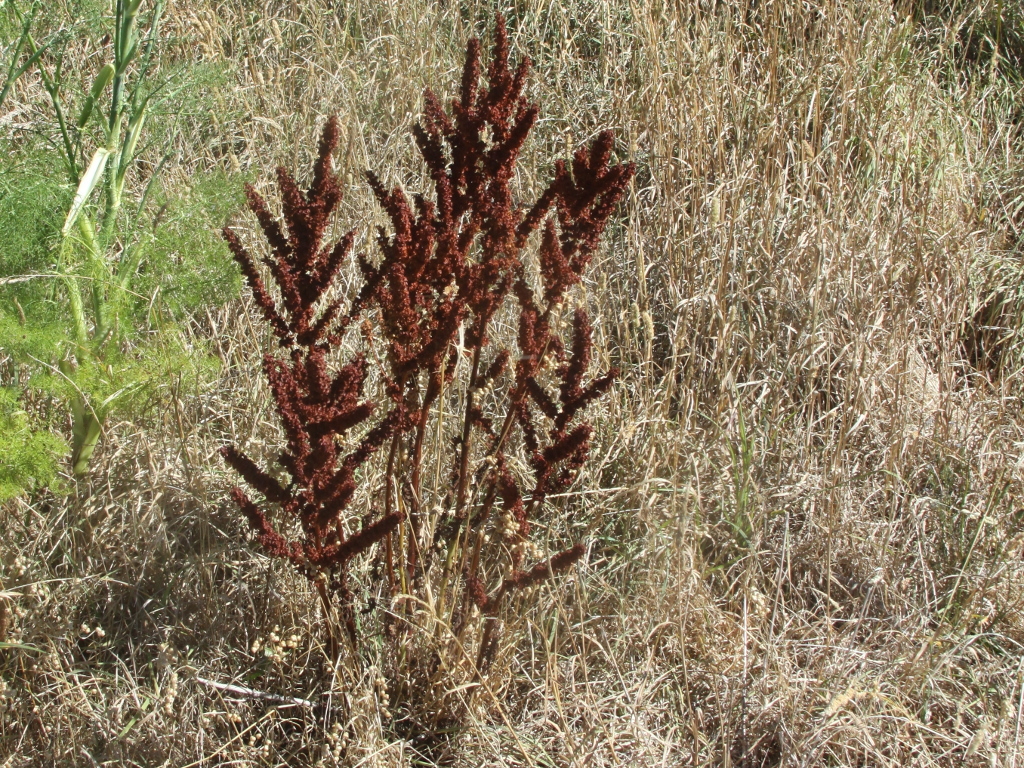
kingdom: Plantae
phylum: Tracheophyta
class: Magnoliopsida
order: Caryophyllales
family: Polygonaceae
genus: Rumex
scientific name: Rumex obtusifolius
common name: Bitter dock
